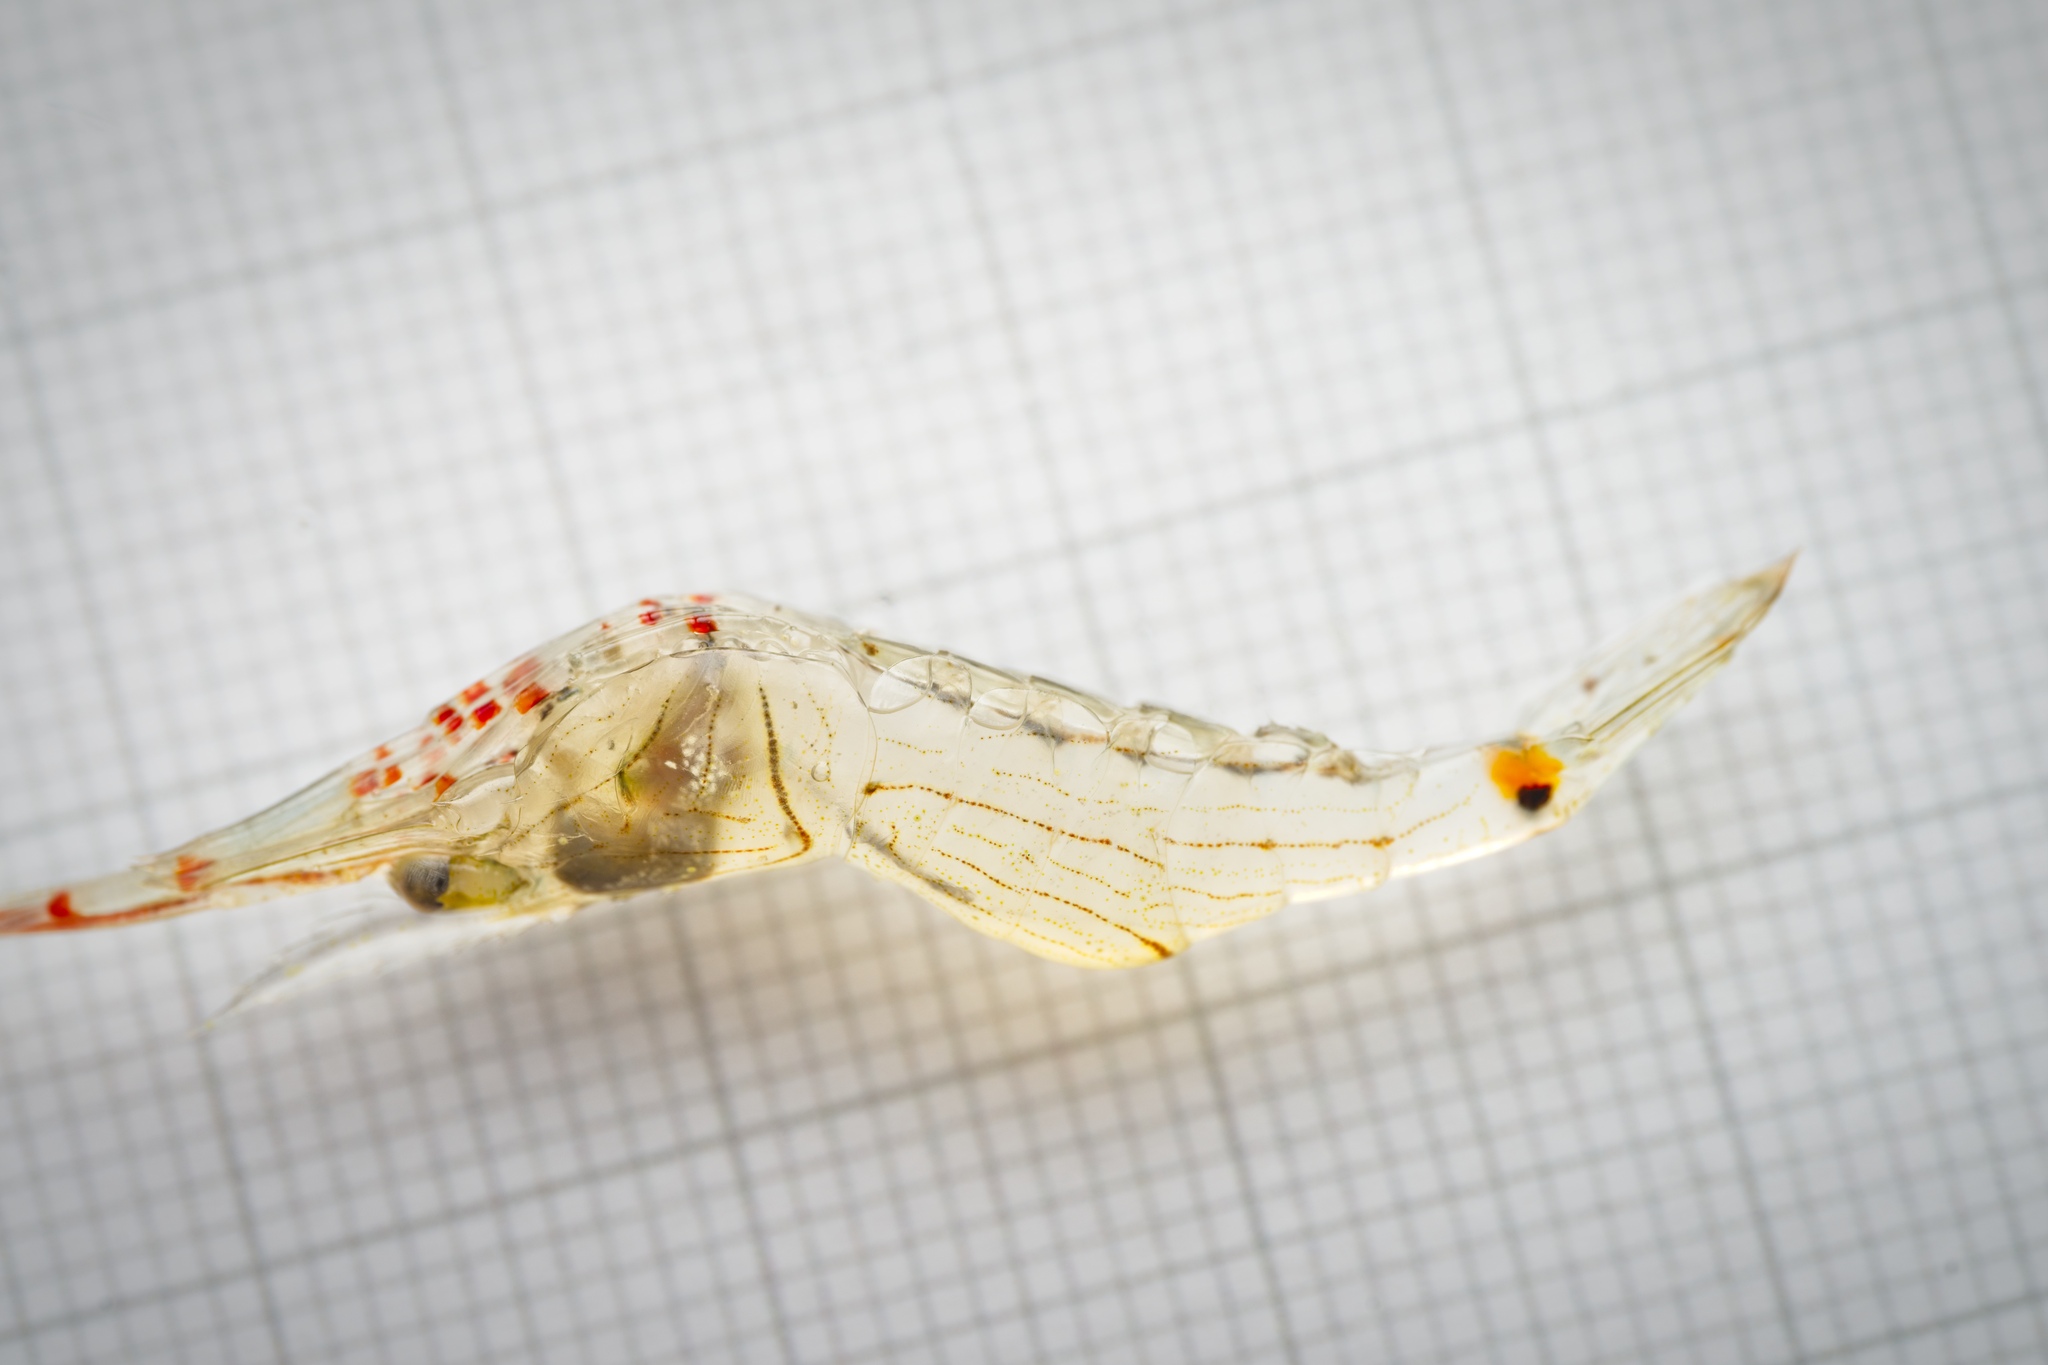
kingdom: Animalia
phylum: Arthropoda
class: Malacostraca
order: Decapoda
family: Palaemonidae
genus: Palaemon
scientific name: Palaemon affinis
